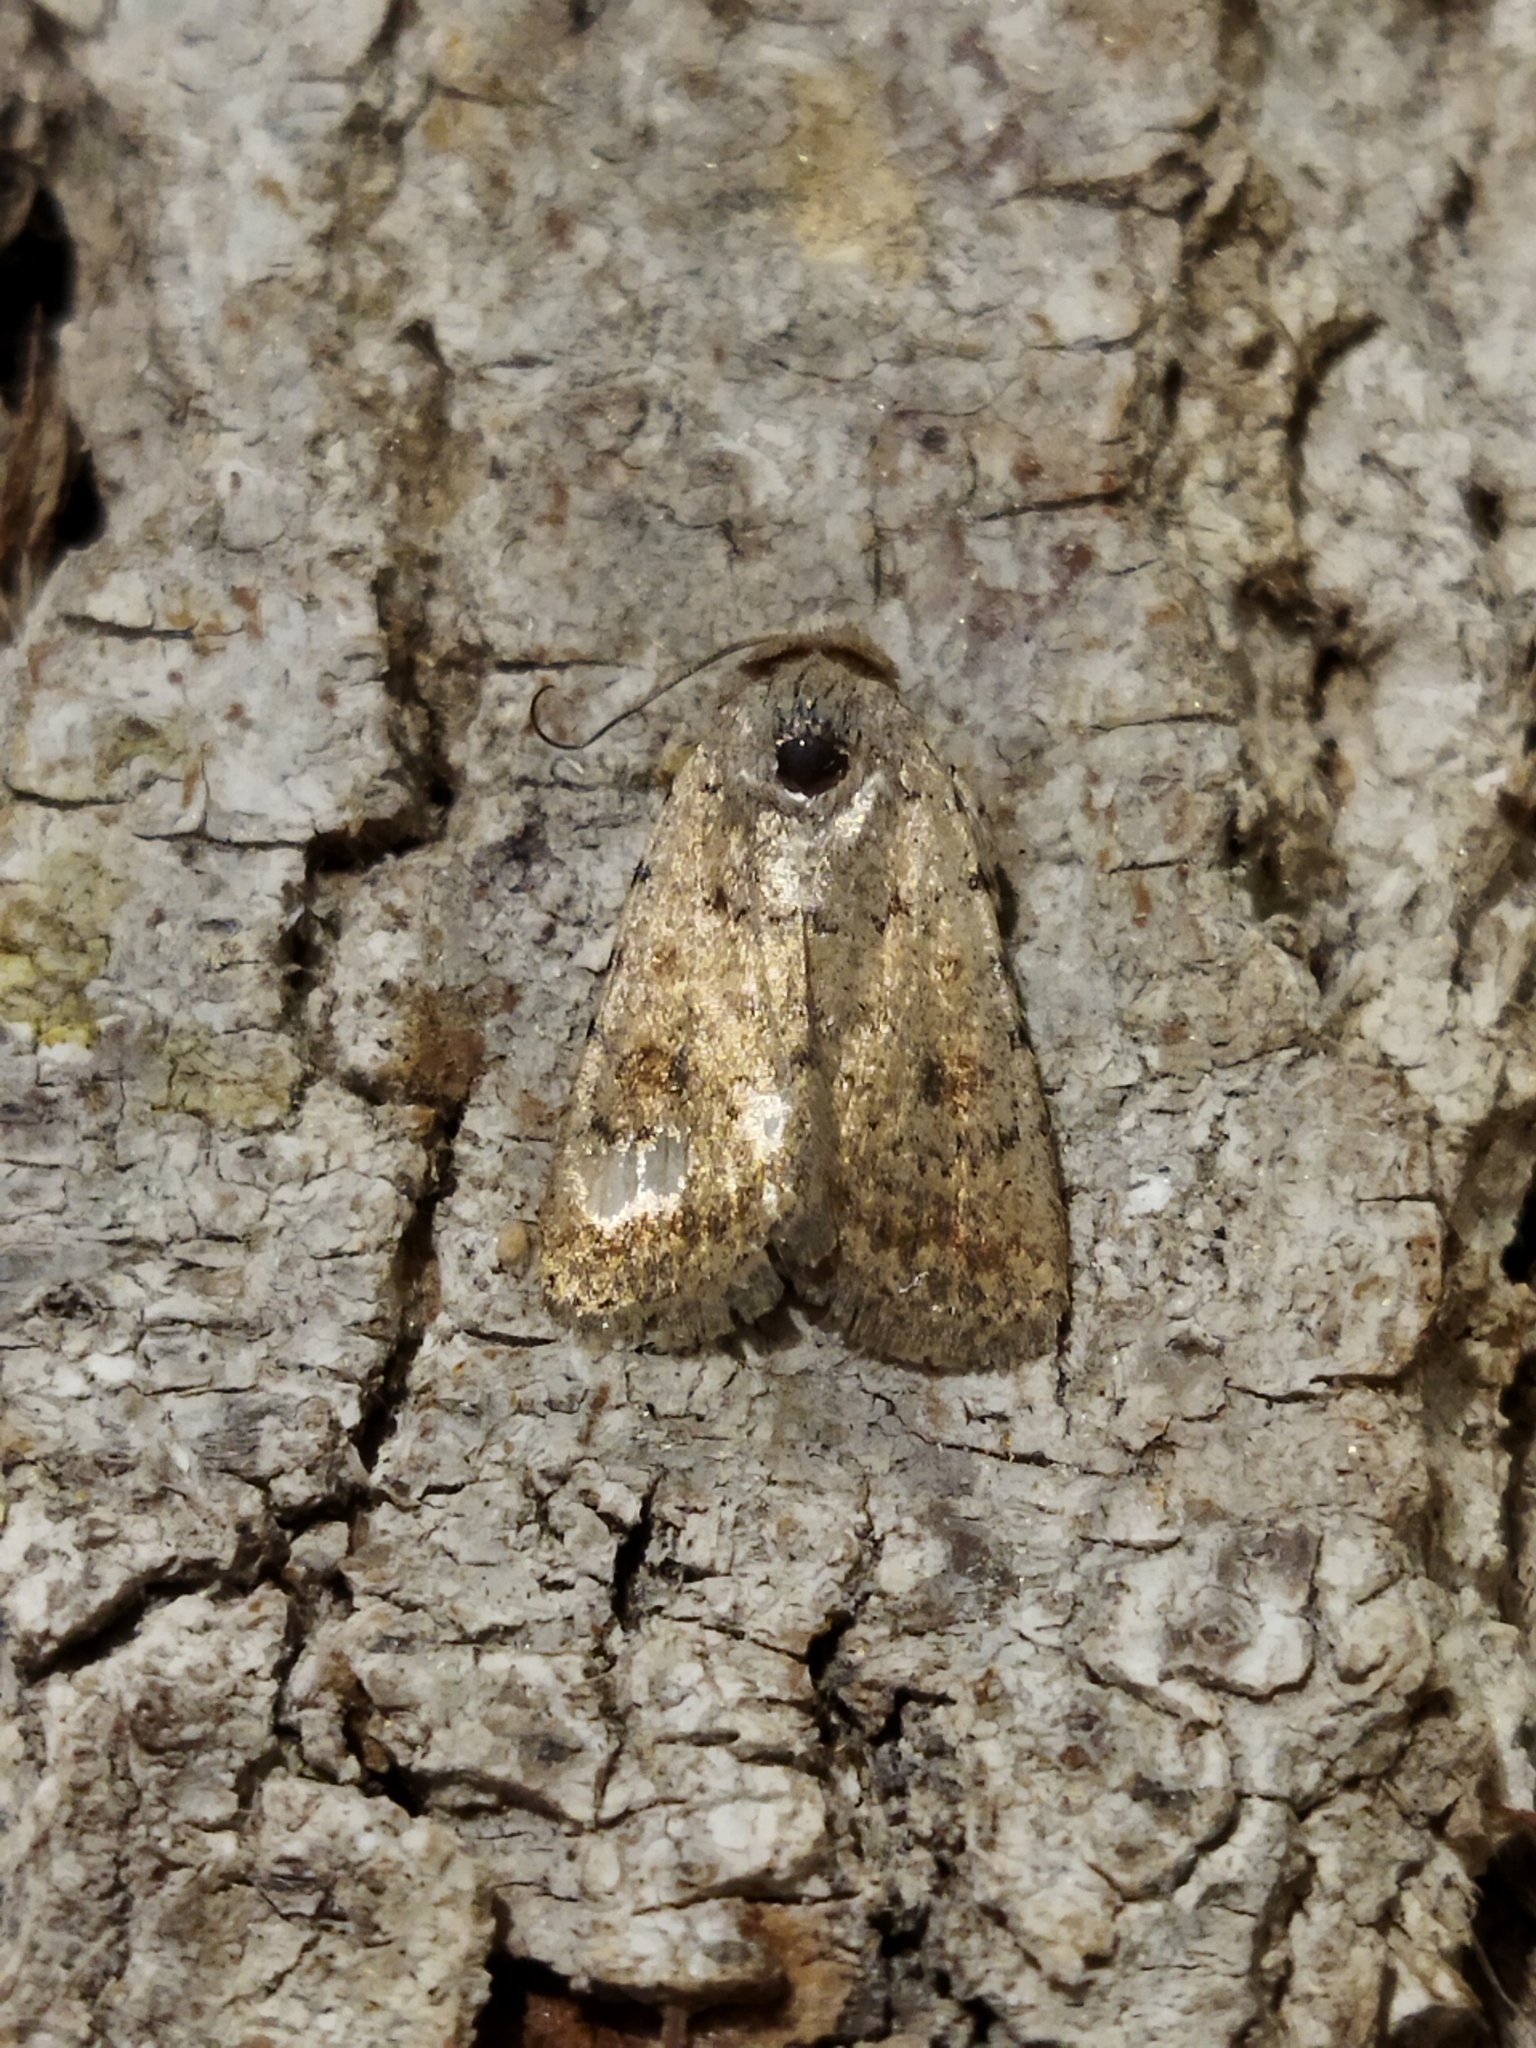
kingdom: Animalia
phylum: Arthropoda
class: Insecta
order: Lepidoptera
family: Noctuidae
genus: Caradrina
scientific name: Caradrina clavipalpis
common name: Pale mottled willow
